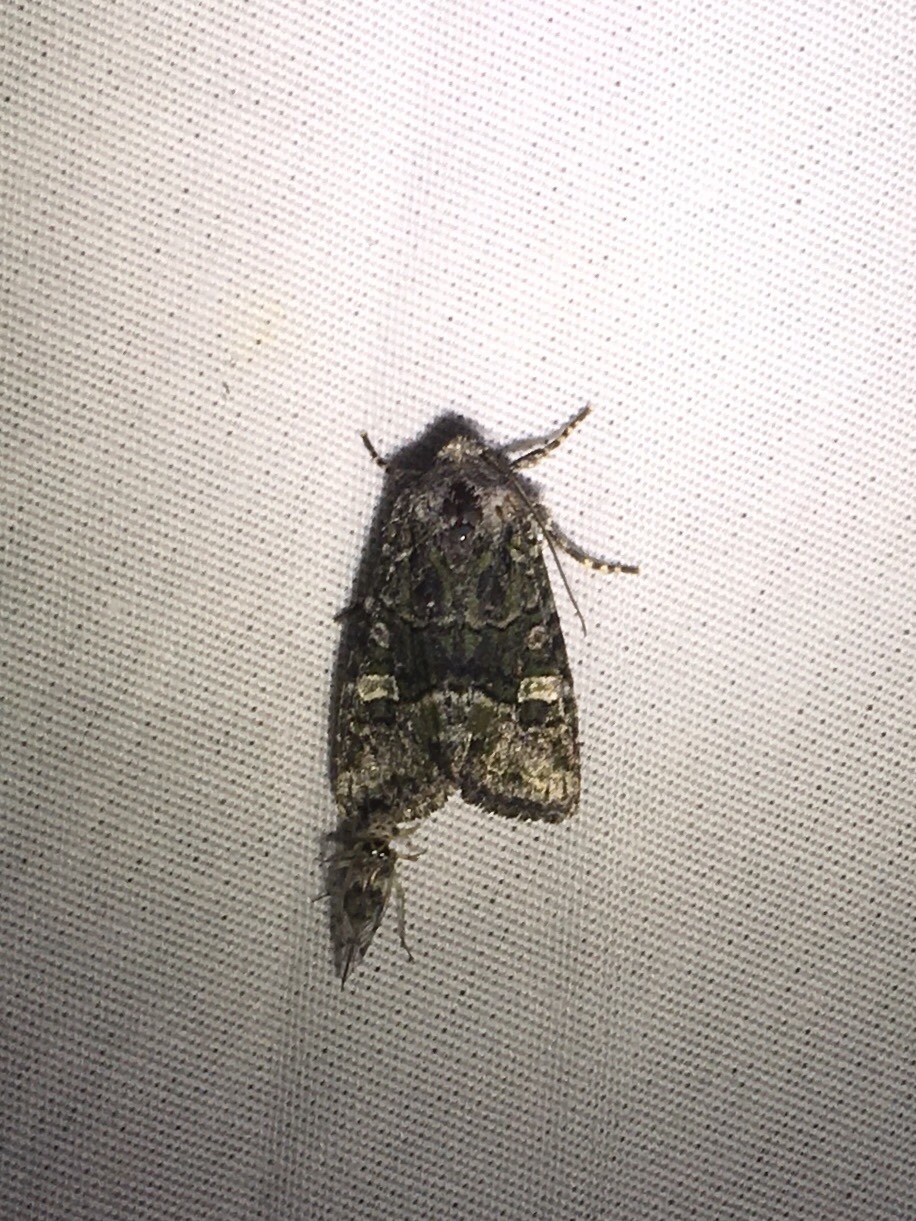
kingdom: Animalia
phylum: Arthropoda
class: Insecta
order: Lepidoptera
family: Noctuidae
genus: Lacinipolia
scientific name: Lacinipolia olivacea
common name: Olive arches moth
